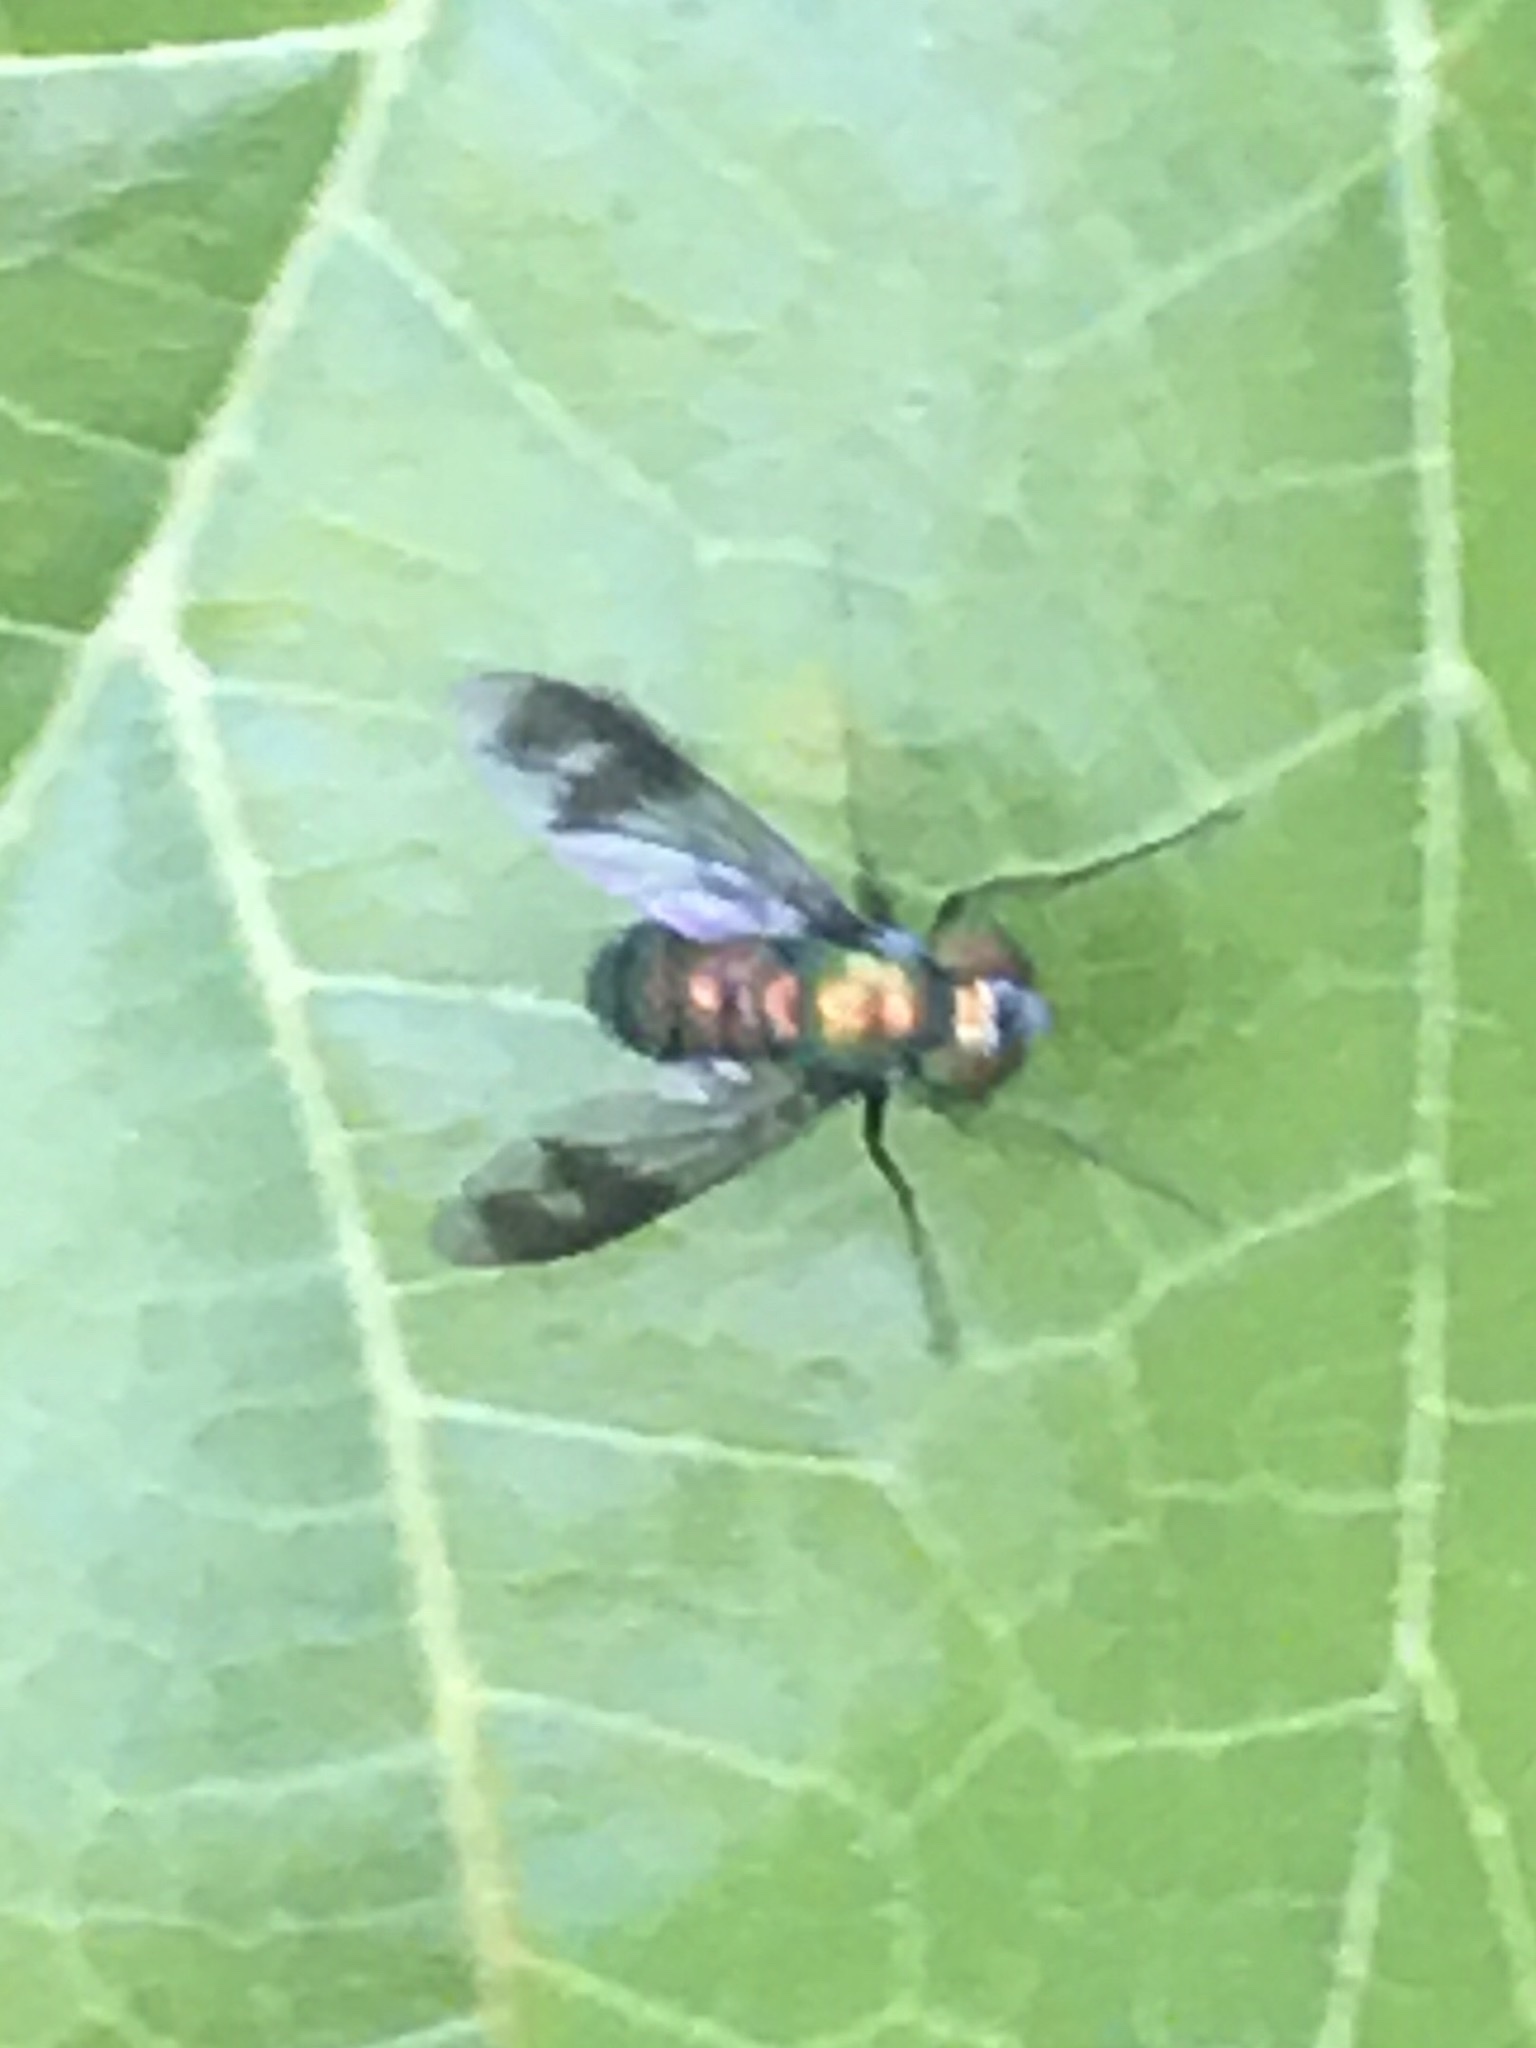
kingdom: Animalia
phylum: Arthropoda
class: Insecta
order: Diptera
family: Dolichopodidae
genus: Condylostylus
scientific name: Condylostylus patibulatus
